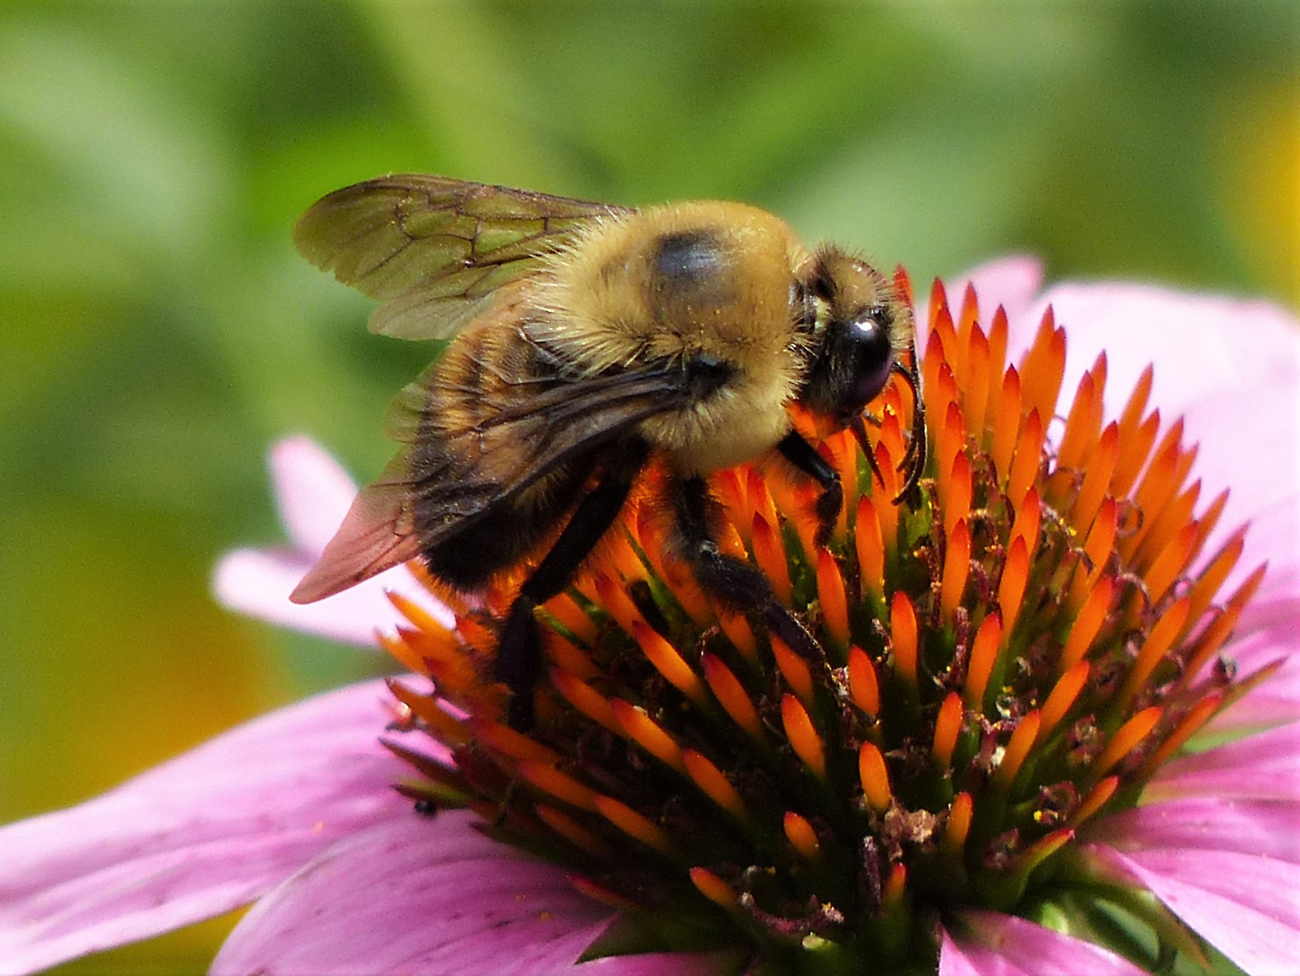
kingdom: Animalia
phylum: Arthropoda
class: Insecta
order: Hymenoptera
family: Apidae
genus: Bombus
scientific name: Bombus griseocollis
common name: Brown-belted bumble bee
